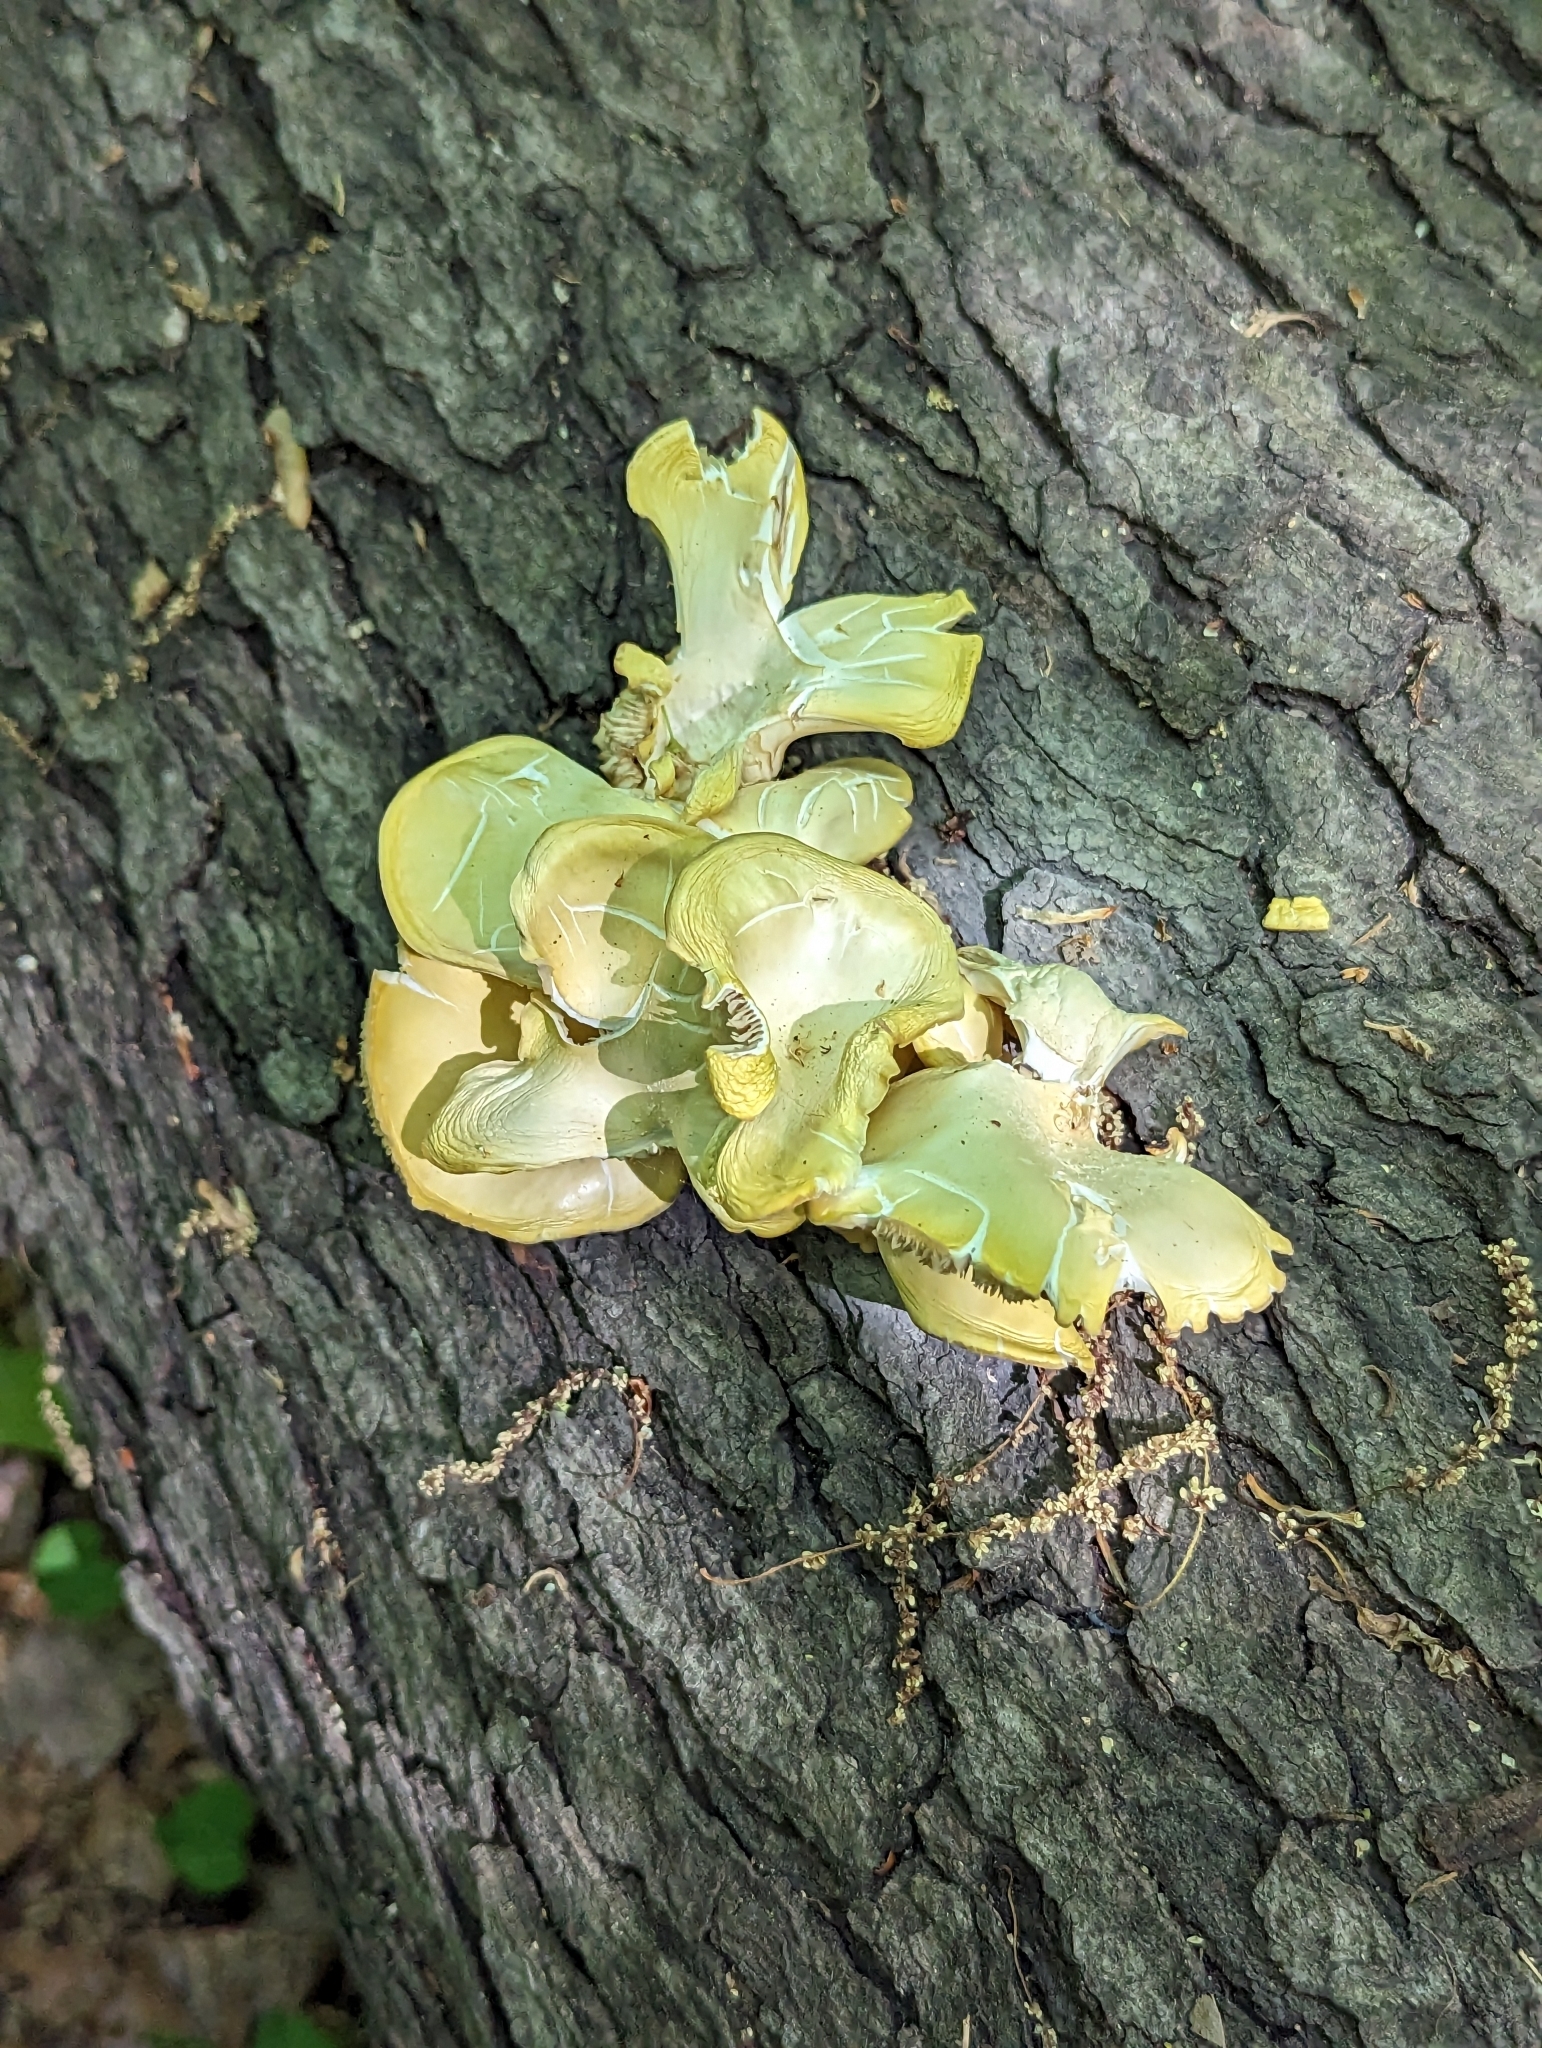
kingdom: Fungi
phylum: Basidiomycota
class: Agaricomycetes
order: Agaricales
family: Pleurotaceae
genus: Pleurotus
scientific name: Pleurotus citrinopileatus
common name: Golden oyster mushroom
